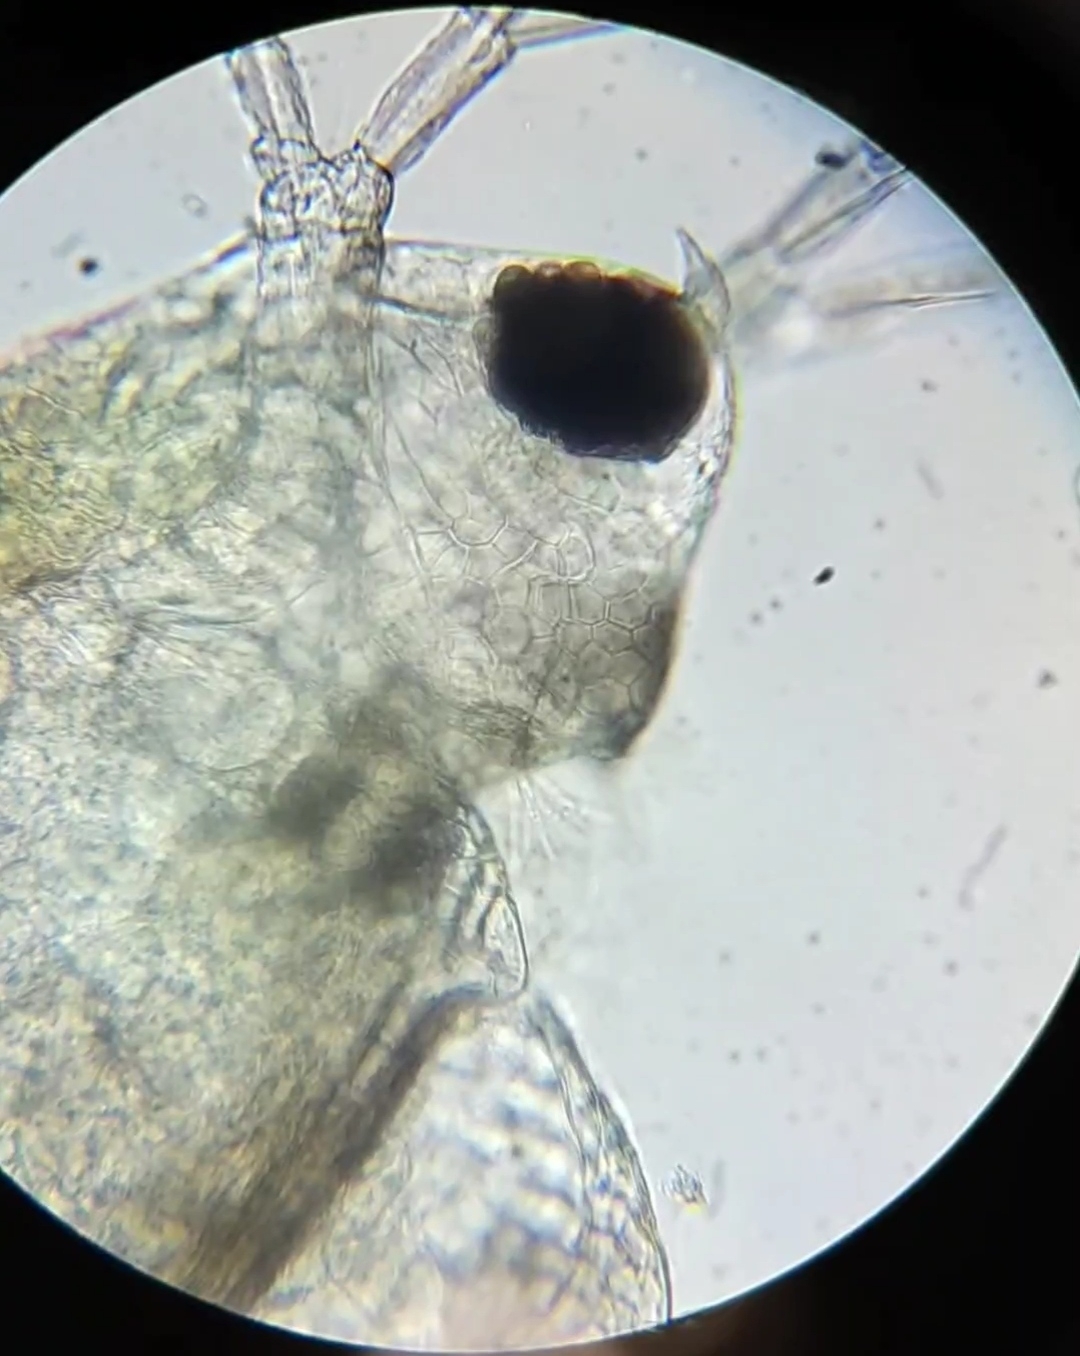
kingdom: Animalia
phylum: Arthropoda
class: Branchiopoda
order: Diplostraca
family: Daphniidae
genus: Scapholeberis
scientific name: Scapholeberis mucronata
